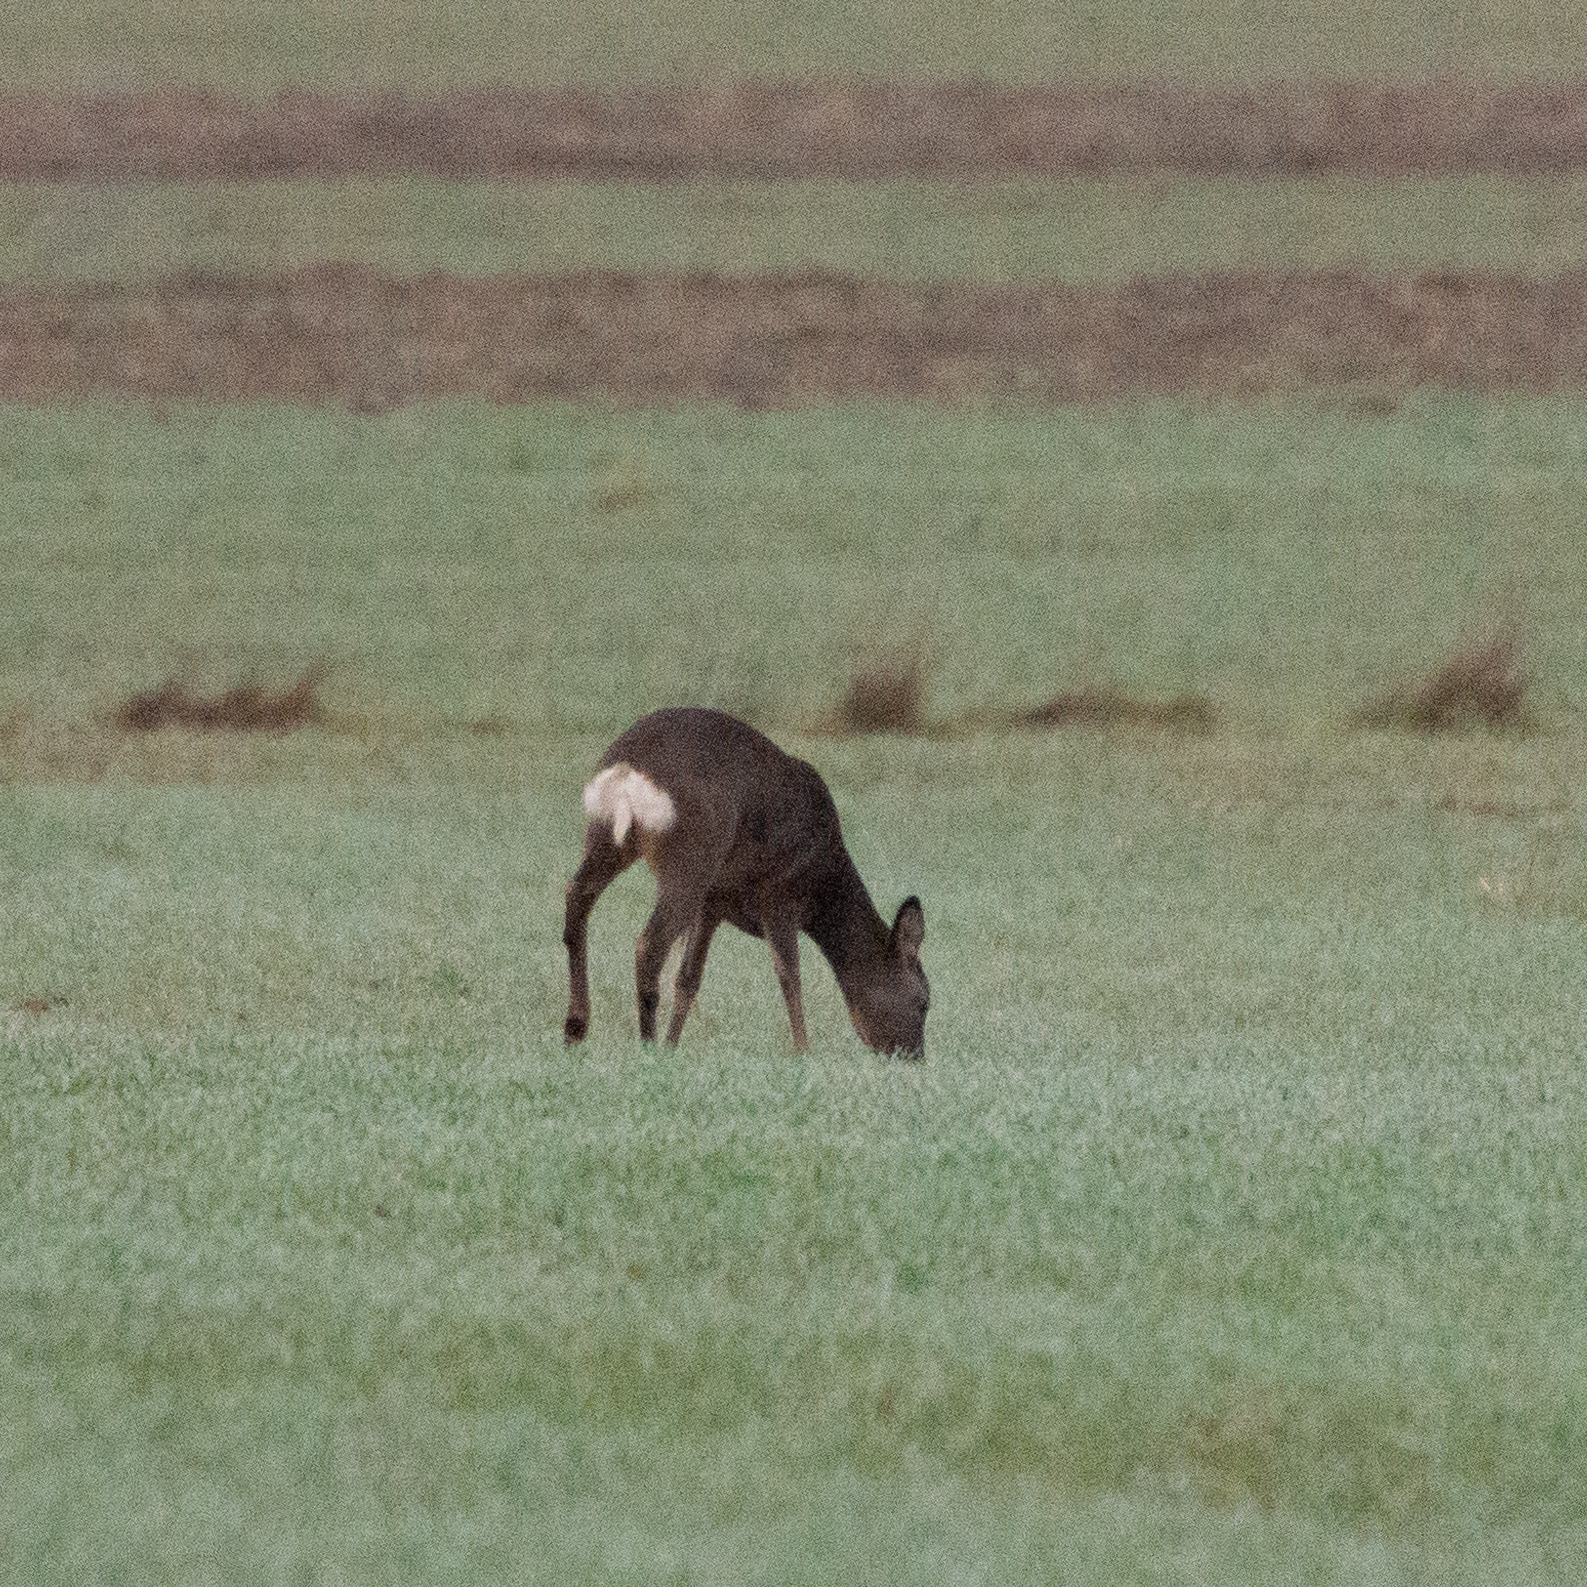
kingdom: Animalia
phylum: Chordata
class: Mammalia
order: Artiodactyla
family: Cervidae
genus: Capreolus
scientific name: Capreolus capreolus
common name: Western roe deer
